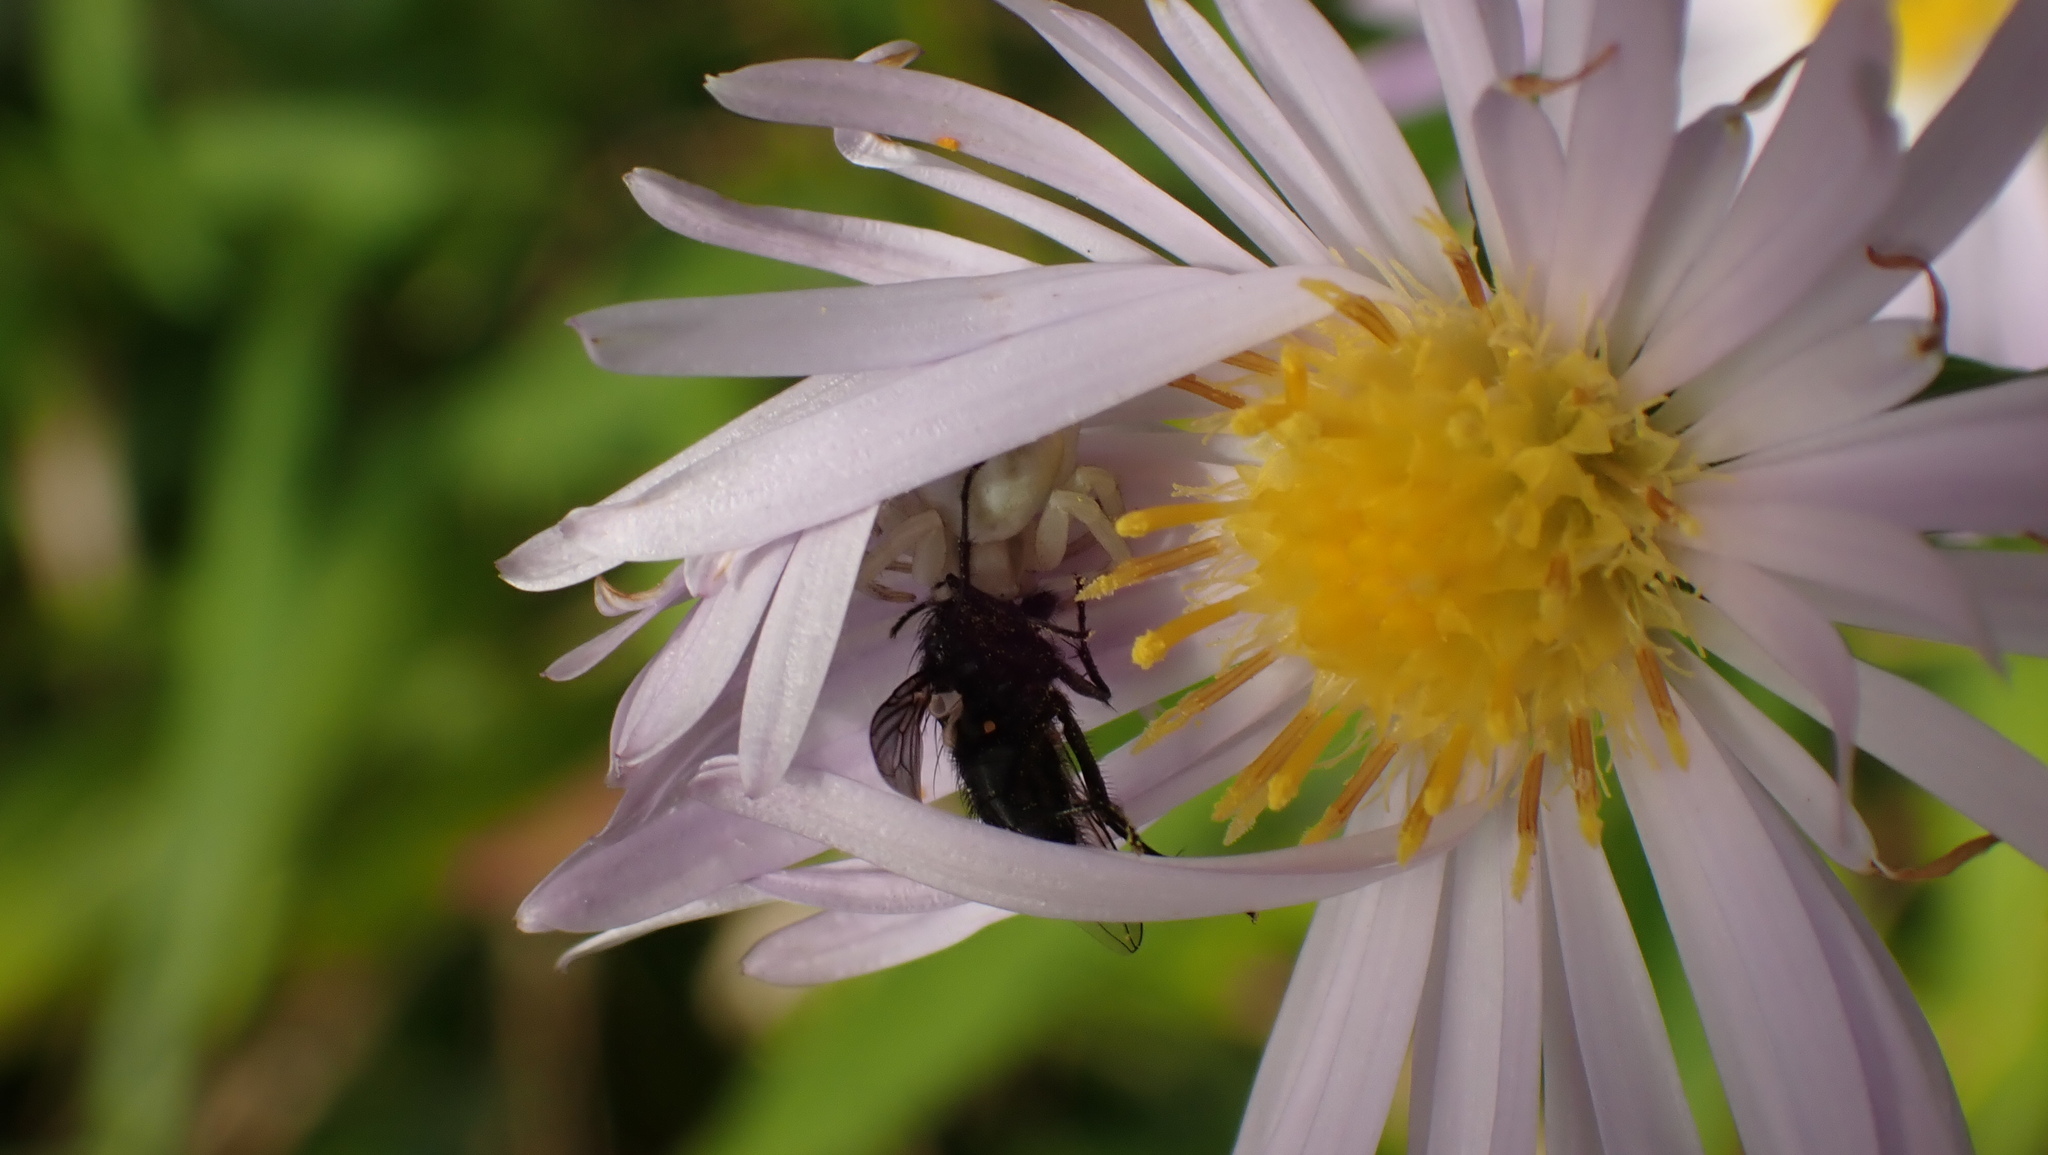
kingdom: Animalia
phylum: Arthropoda
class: Arachnida
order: Araneae
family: Thomisidae
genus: Misumena
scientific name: Misumena vatia
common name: Goldenrod crab spider
